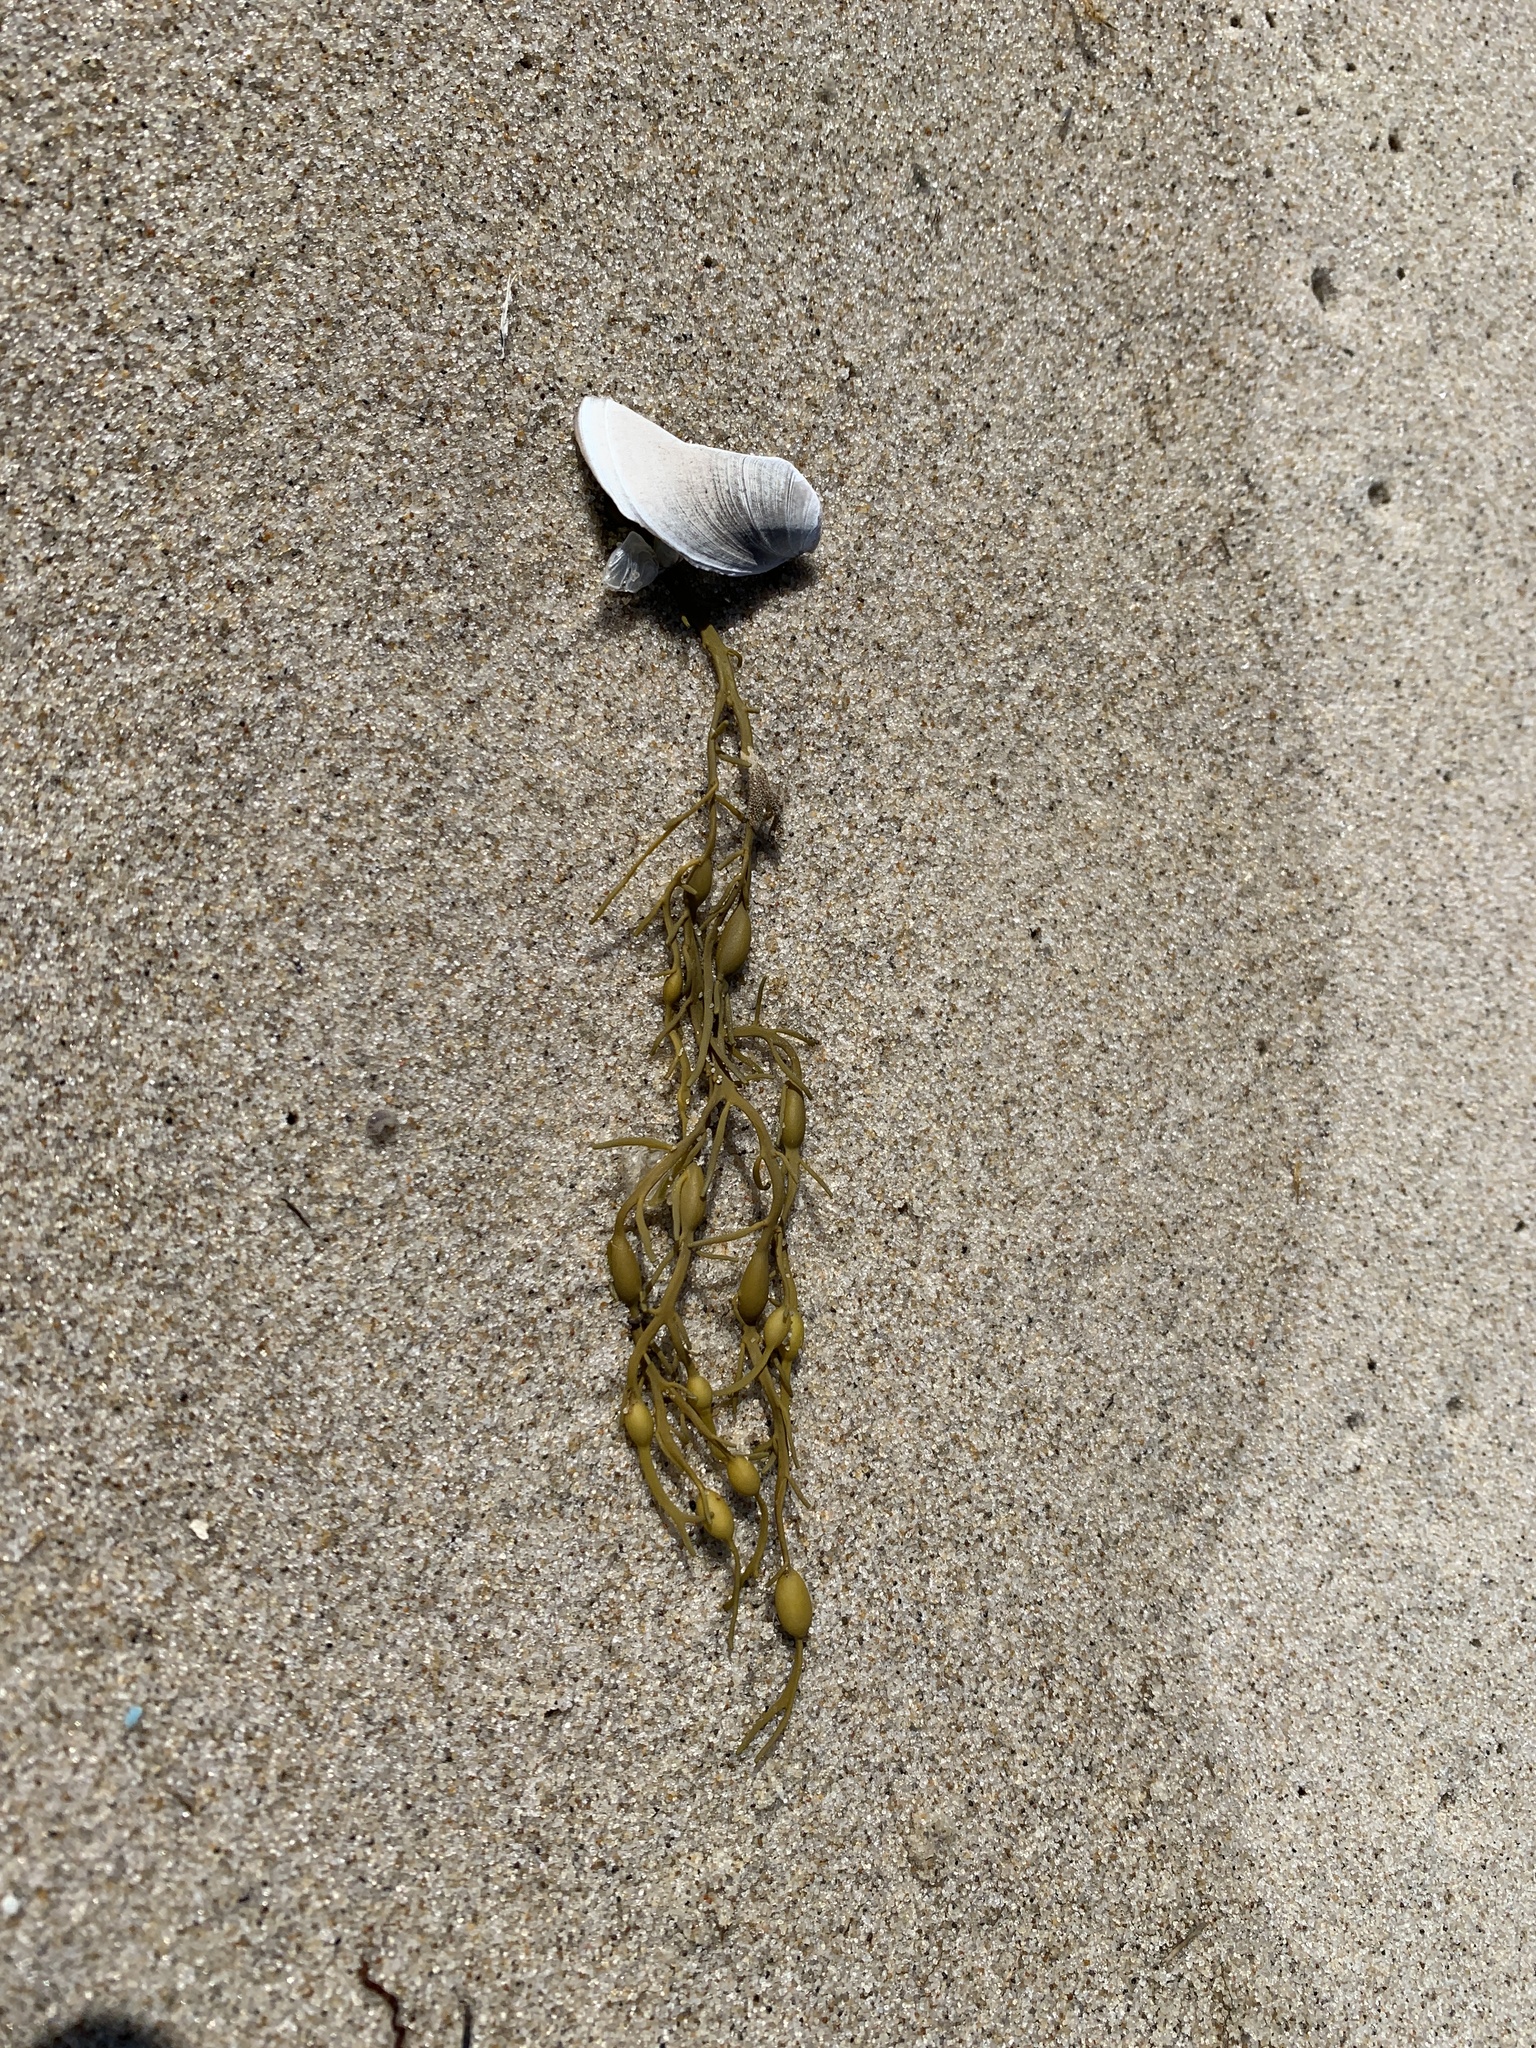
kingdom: Chromista
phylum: Ochrophyta
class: Phaeophyceae
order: Fucales
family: Fucaceae
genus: Ascophyllum
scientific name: Ascophyllum nodosum
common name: Knotted wrack
